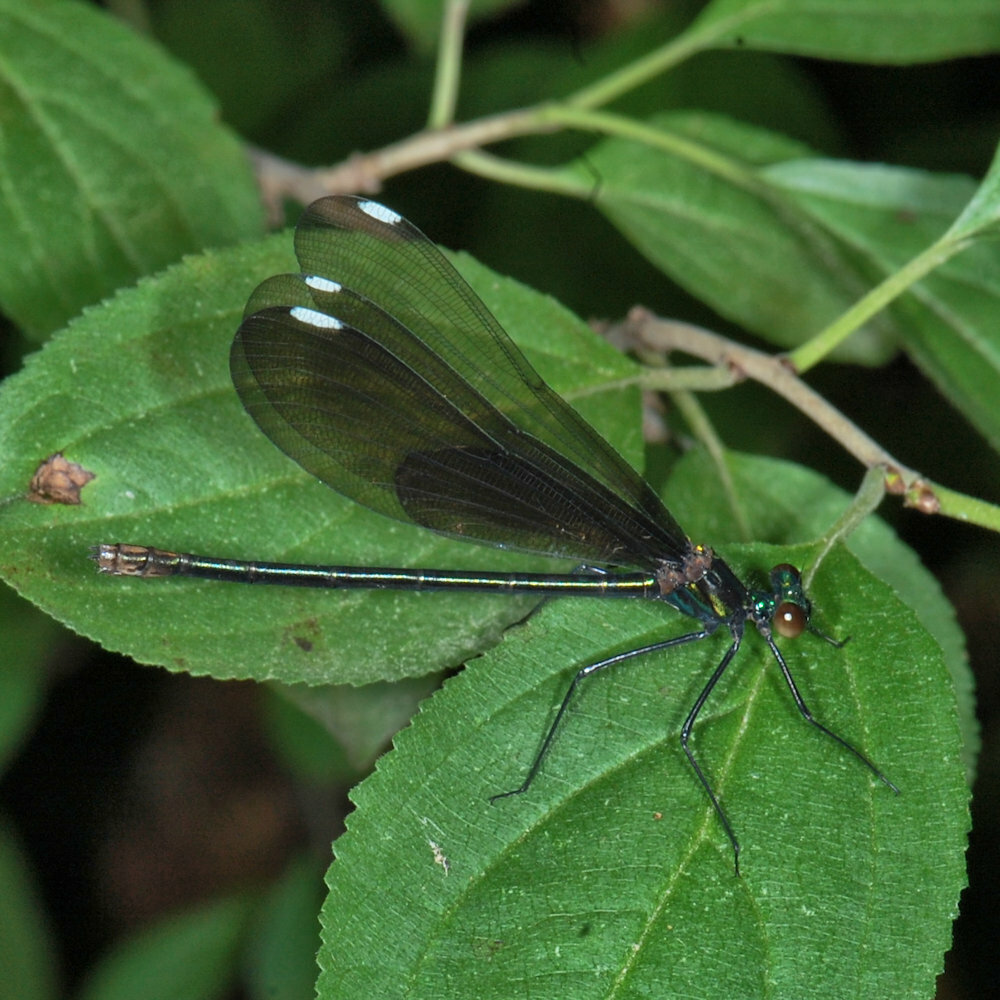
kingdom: Animalia
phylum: Arthropoda
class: Insecta
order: Odonata
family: Calopterygidae
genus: Calopteryx
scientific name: Calopteryx maculata
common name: Ebony jewelwing
